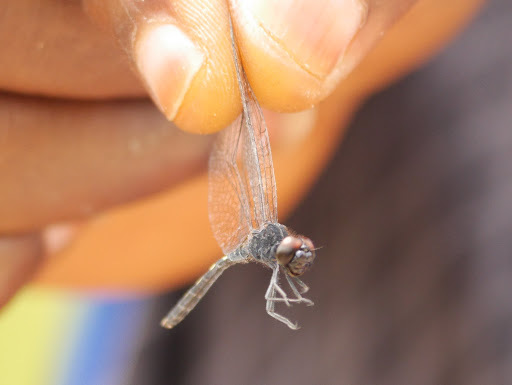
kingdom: Animalia
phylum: Arthropoda
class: Insecta
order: Odonata
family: Libellulidae
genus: Diplacodes
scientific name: Diplacodes lefebvrii
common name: Black percher
